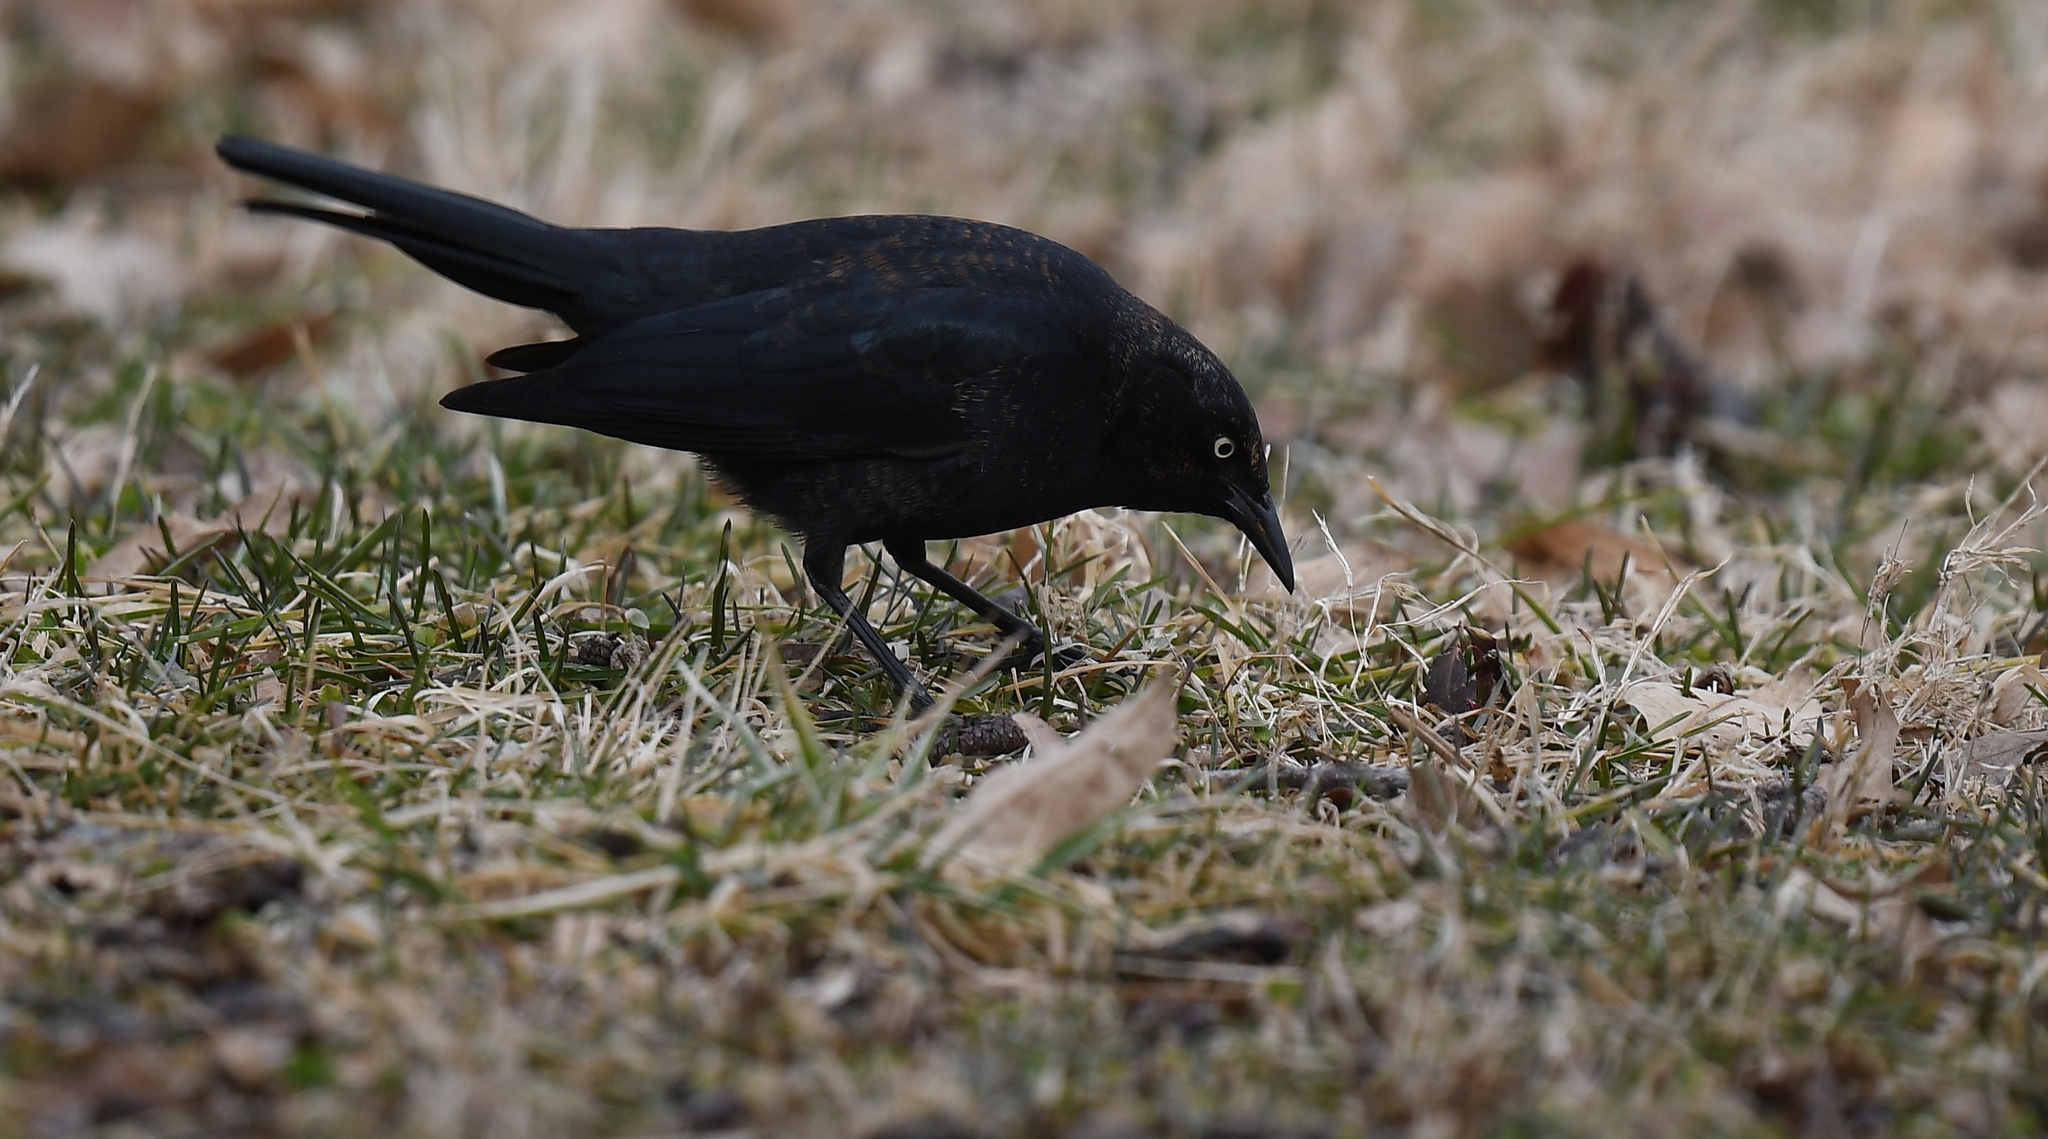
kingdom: Animalia
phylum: Chordata
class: Aves
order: Passeriformes
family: Icteridae
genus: Euphagus
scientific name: Euphagus carolinus
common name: Rusty blackbird
